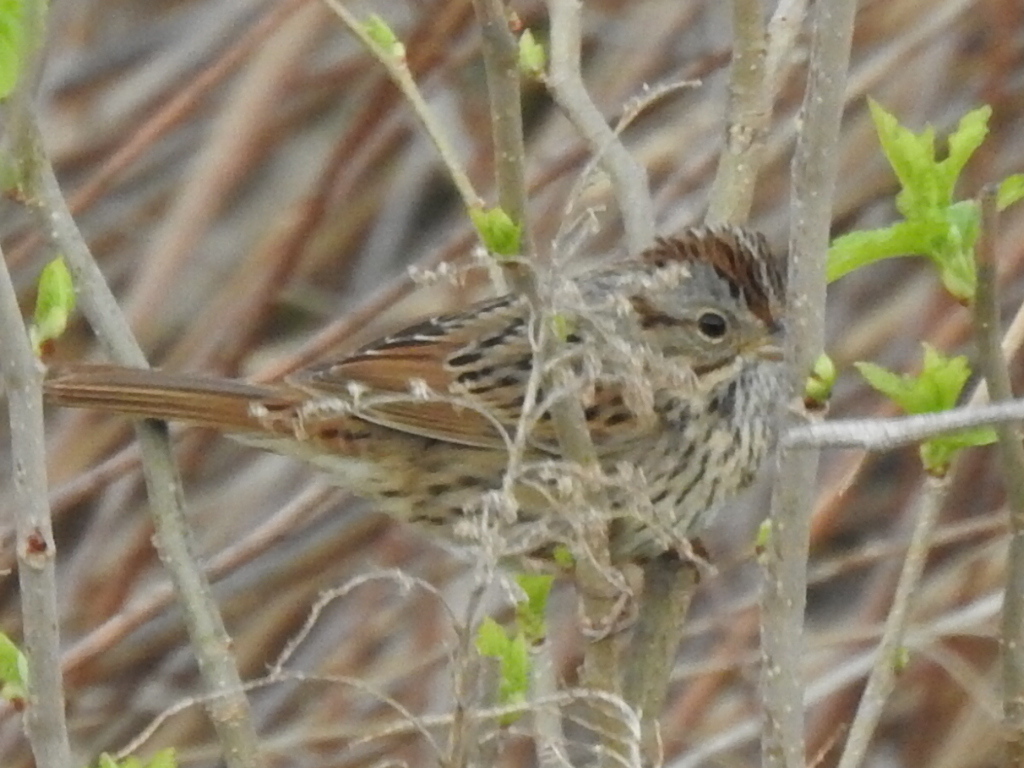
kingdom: Animalia
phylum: Chordata
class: Aves
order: Passeriformes
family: Passerellidae
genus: Melospiza
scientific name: Melospiza lincolnii
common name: Lincoln's sparrow
